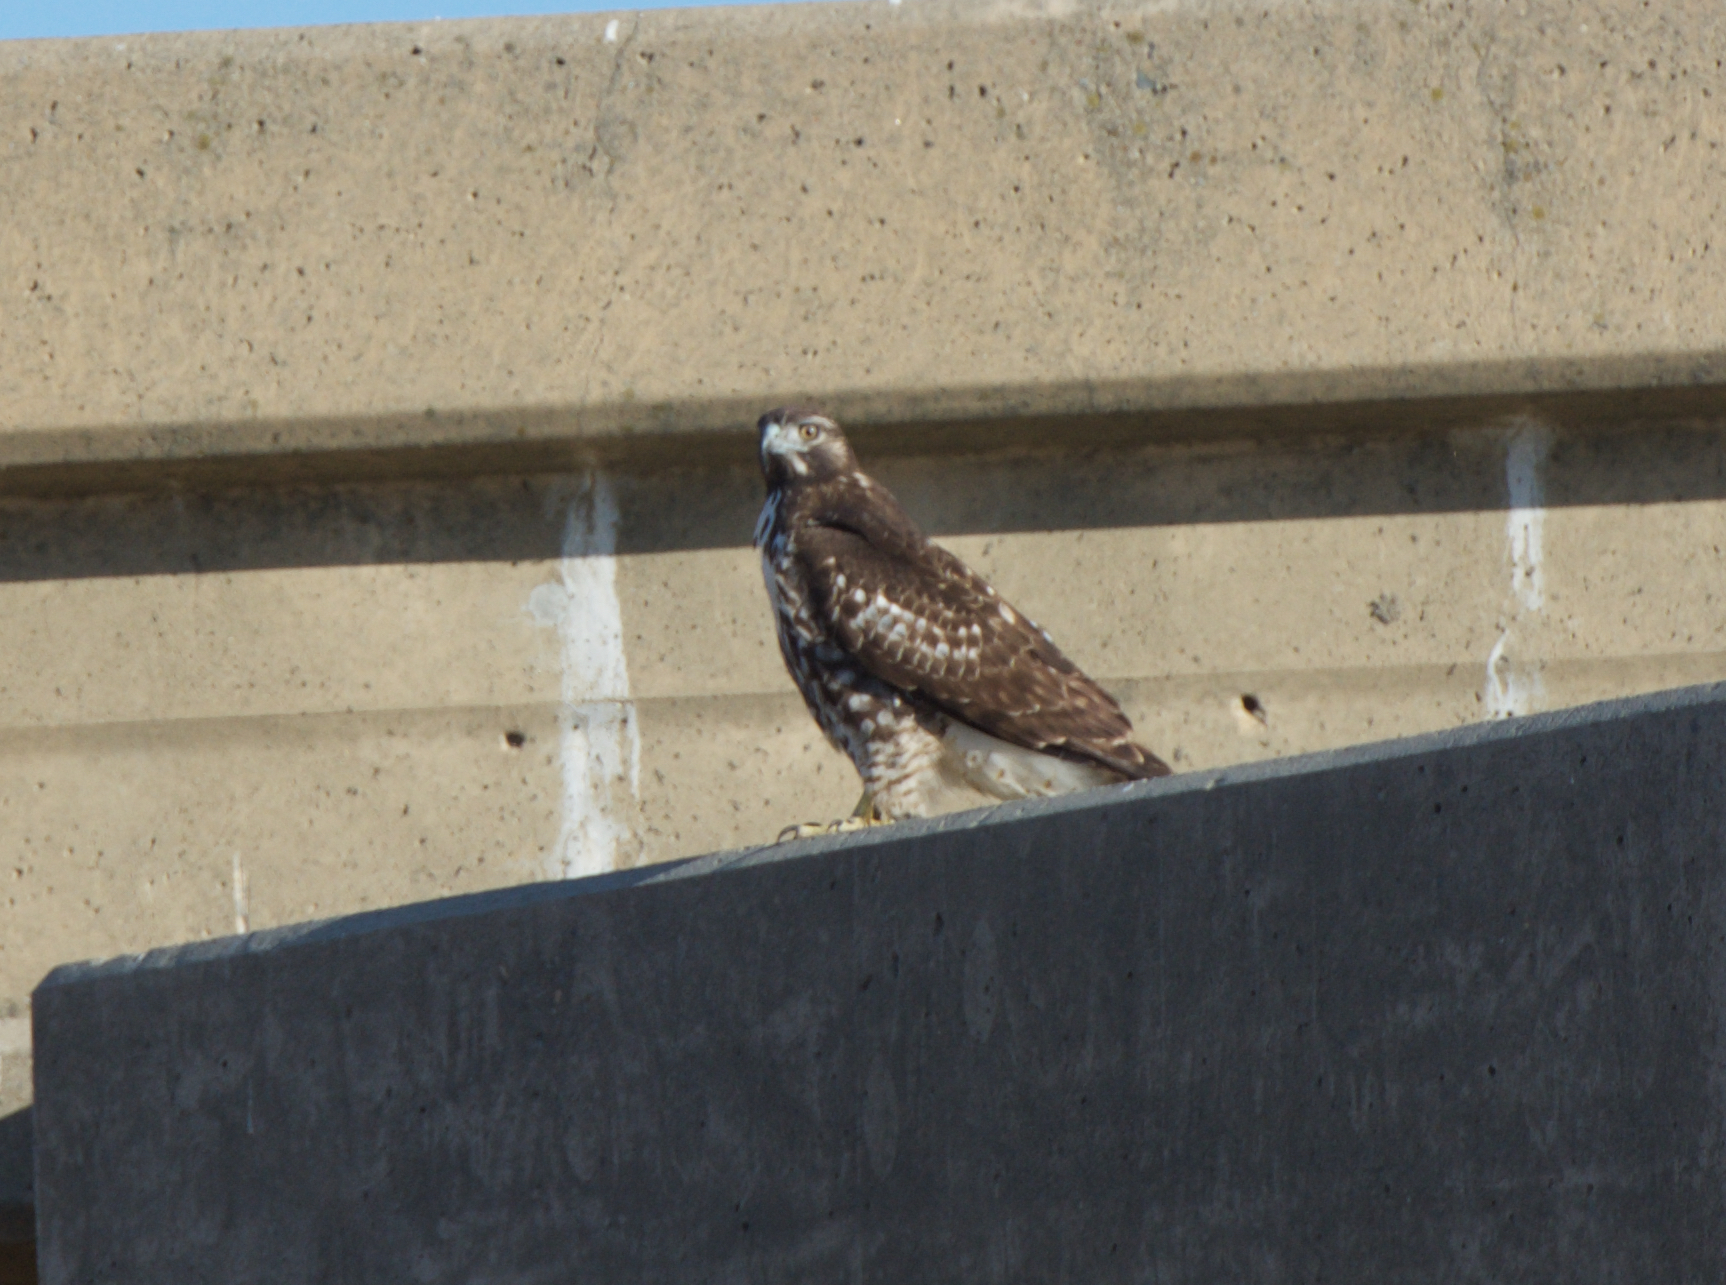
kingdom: Animalia
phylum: Chordata
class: Aves
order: Accipitriformes
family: Accipitridae
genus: Buteo
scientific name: Buteo jamaicensis
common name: Red-tailed hawk
